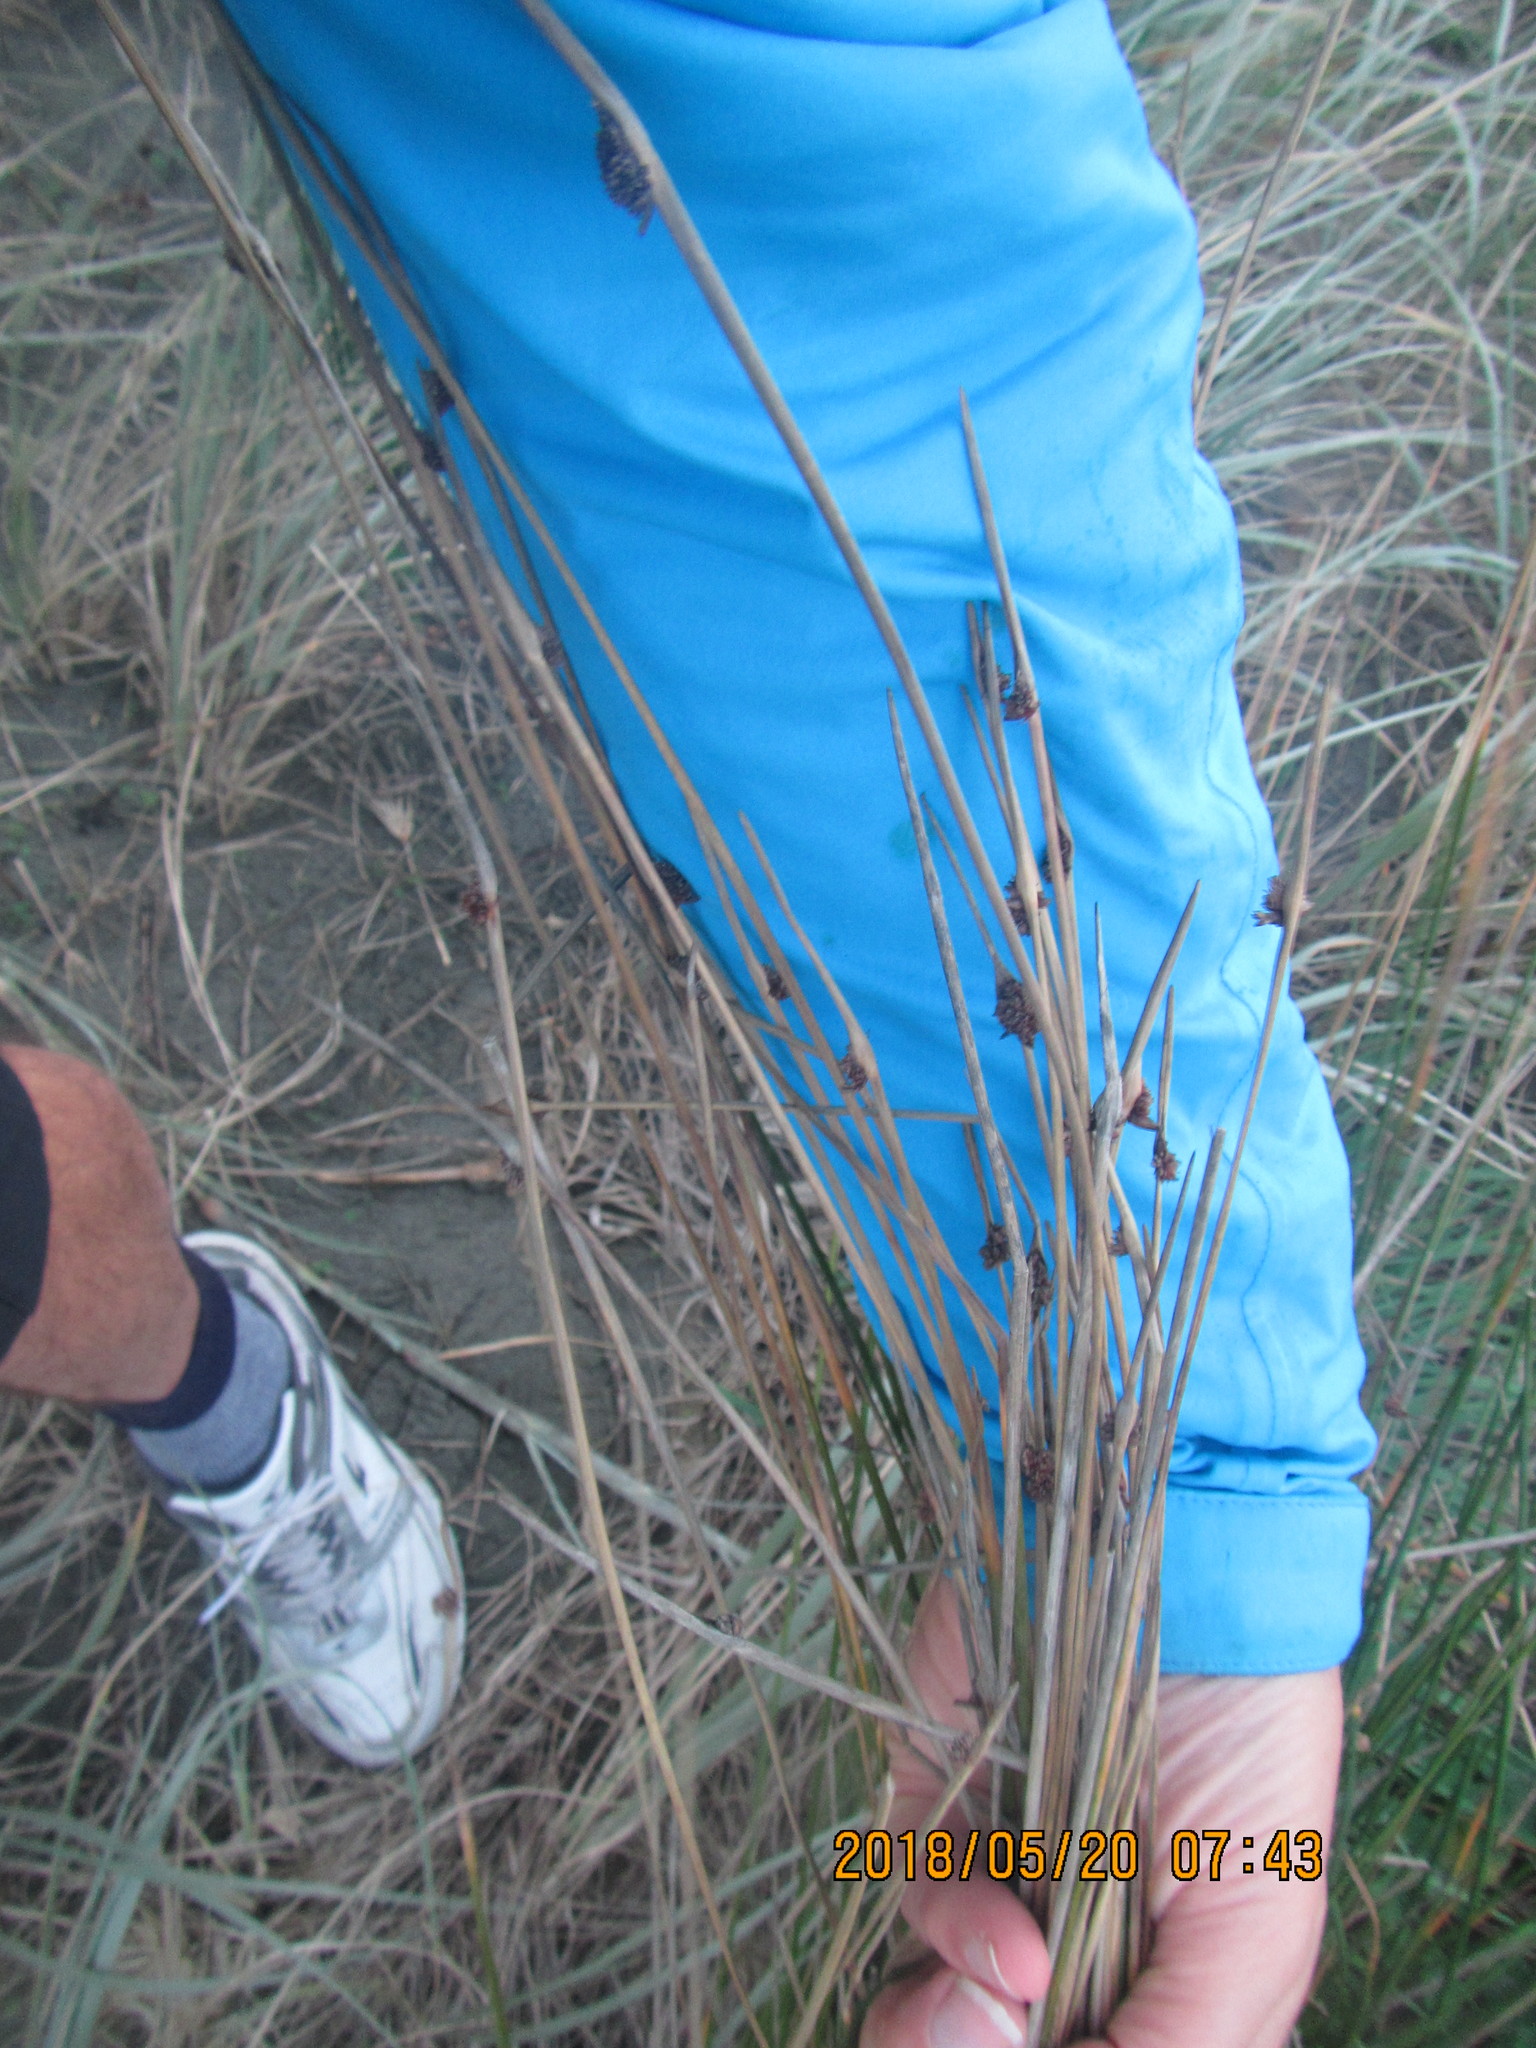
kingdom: Plantae
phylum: Tracheophyta
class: Liliopsida
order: Poales
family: Cyperaceae
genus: Ficinia
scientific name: Ficinia nodosa
